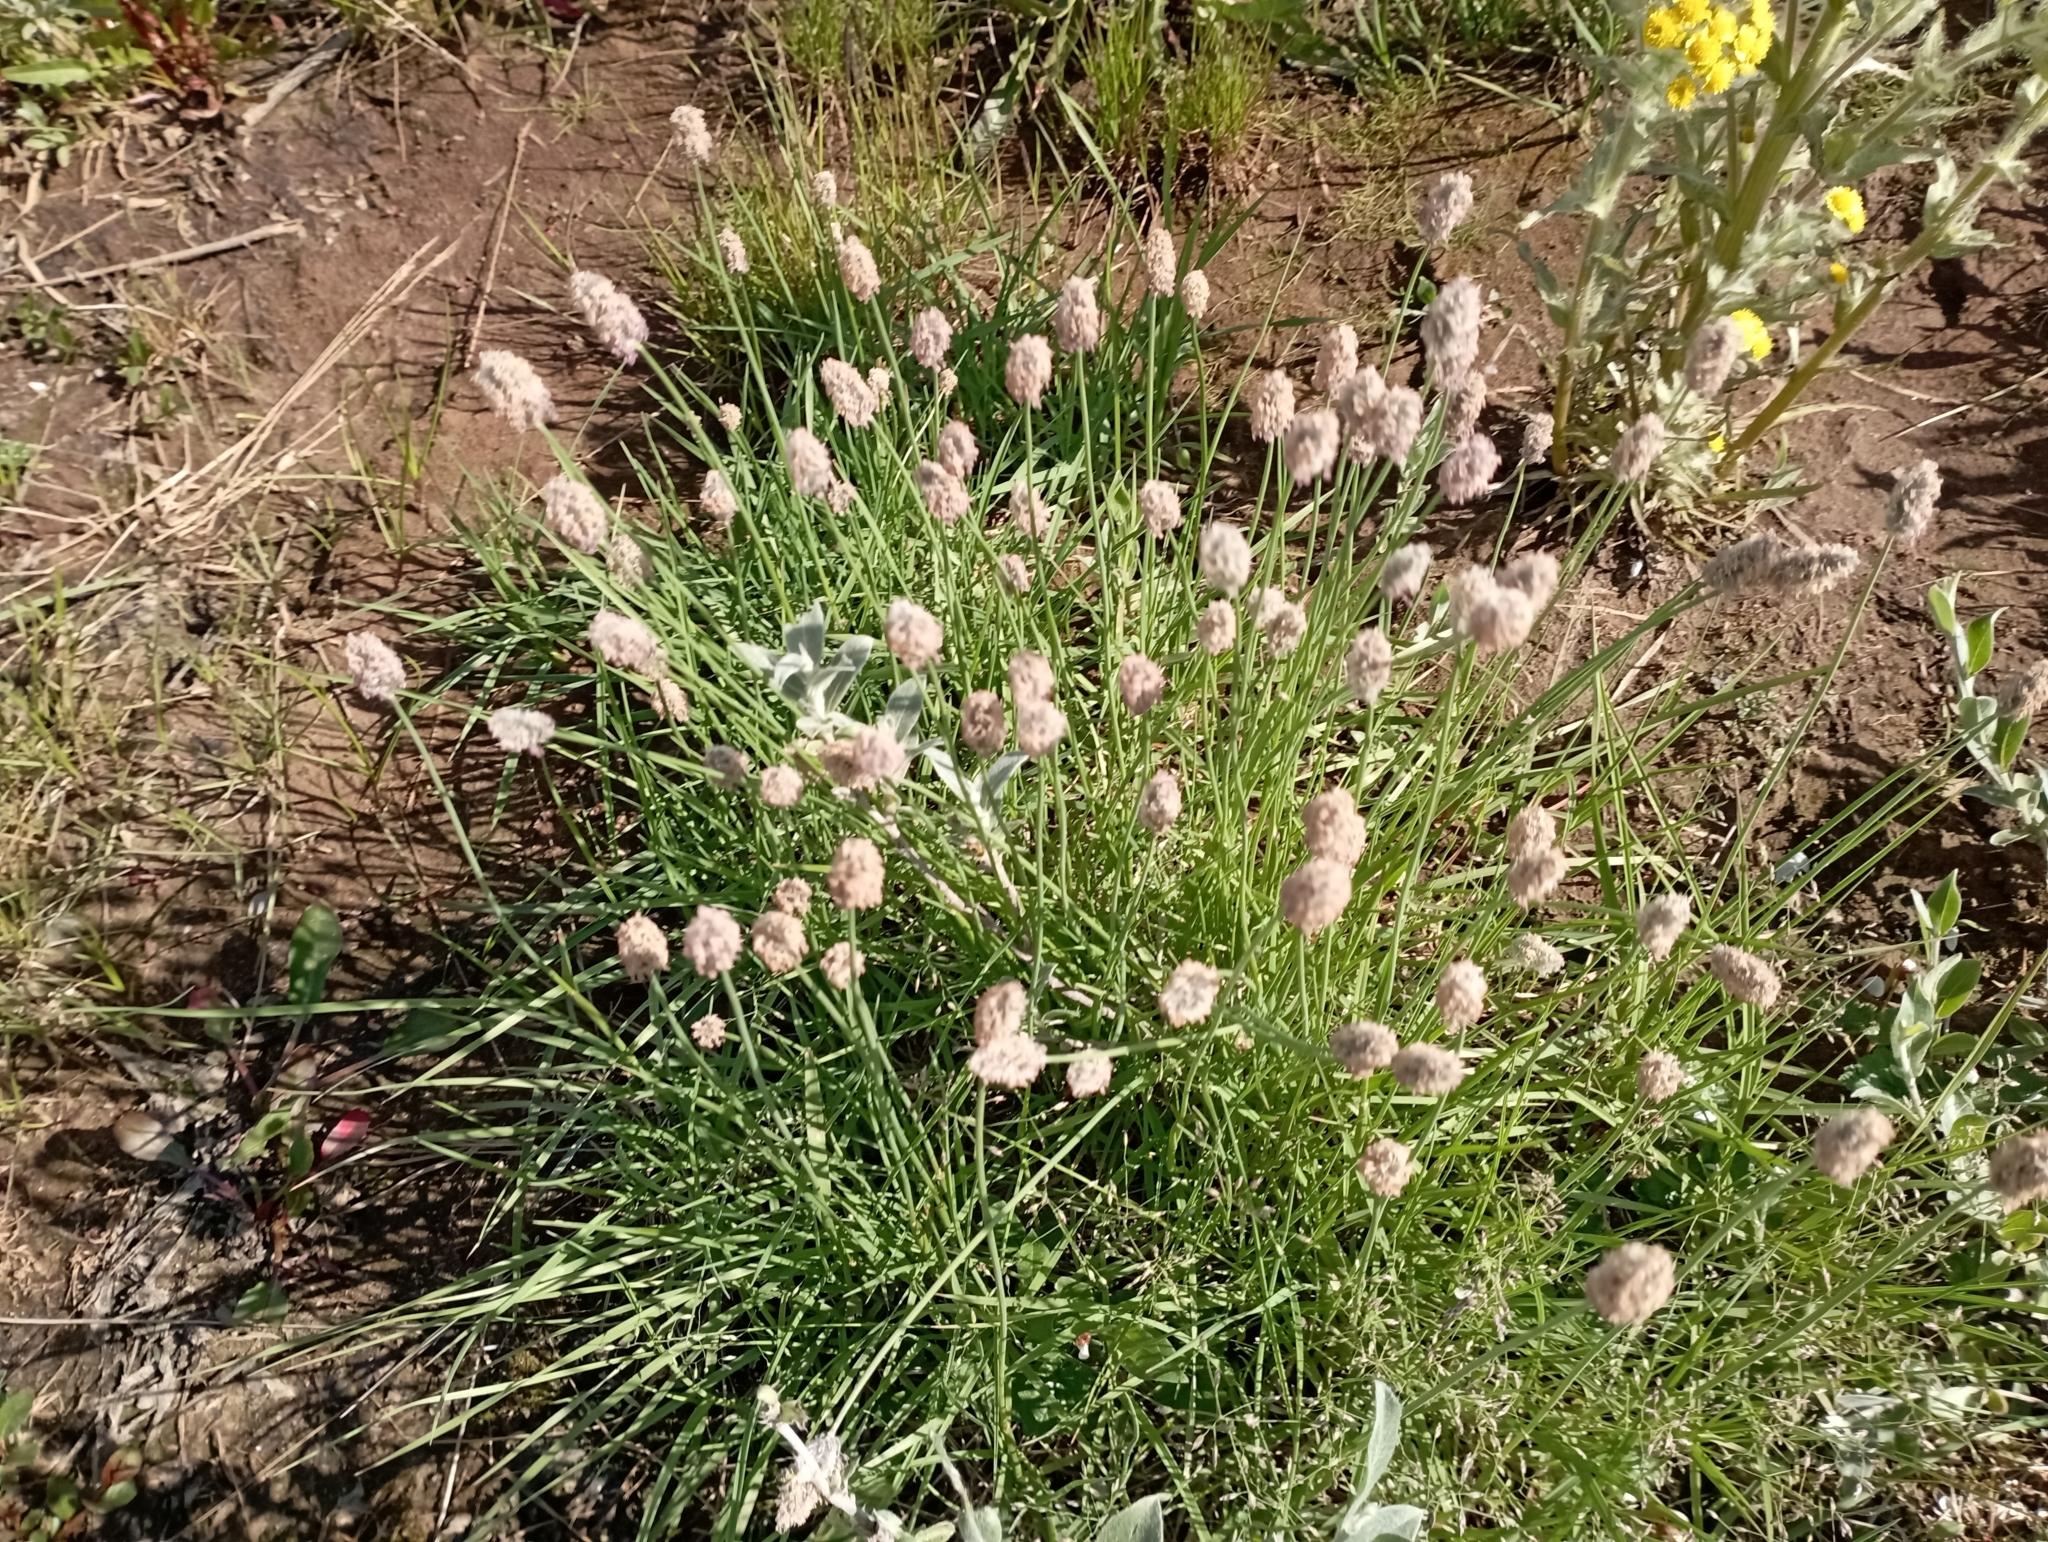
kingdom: Plantae
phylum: Tracheophyta
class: Liliopsida
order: Poales
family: Poaceae
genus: Alopecurus
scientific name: Alopecurus magellanicus
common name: Alpine foxtail
